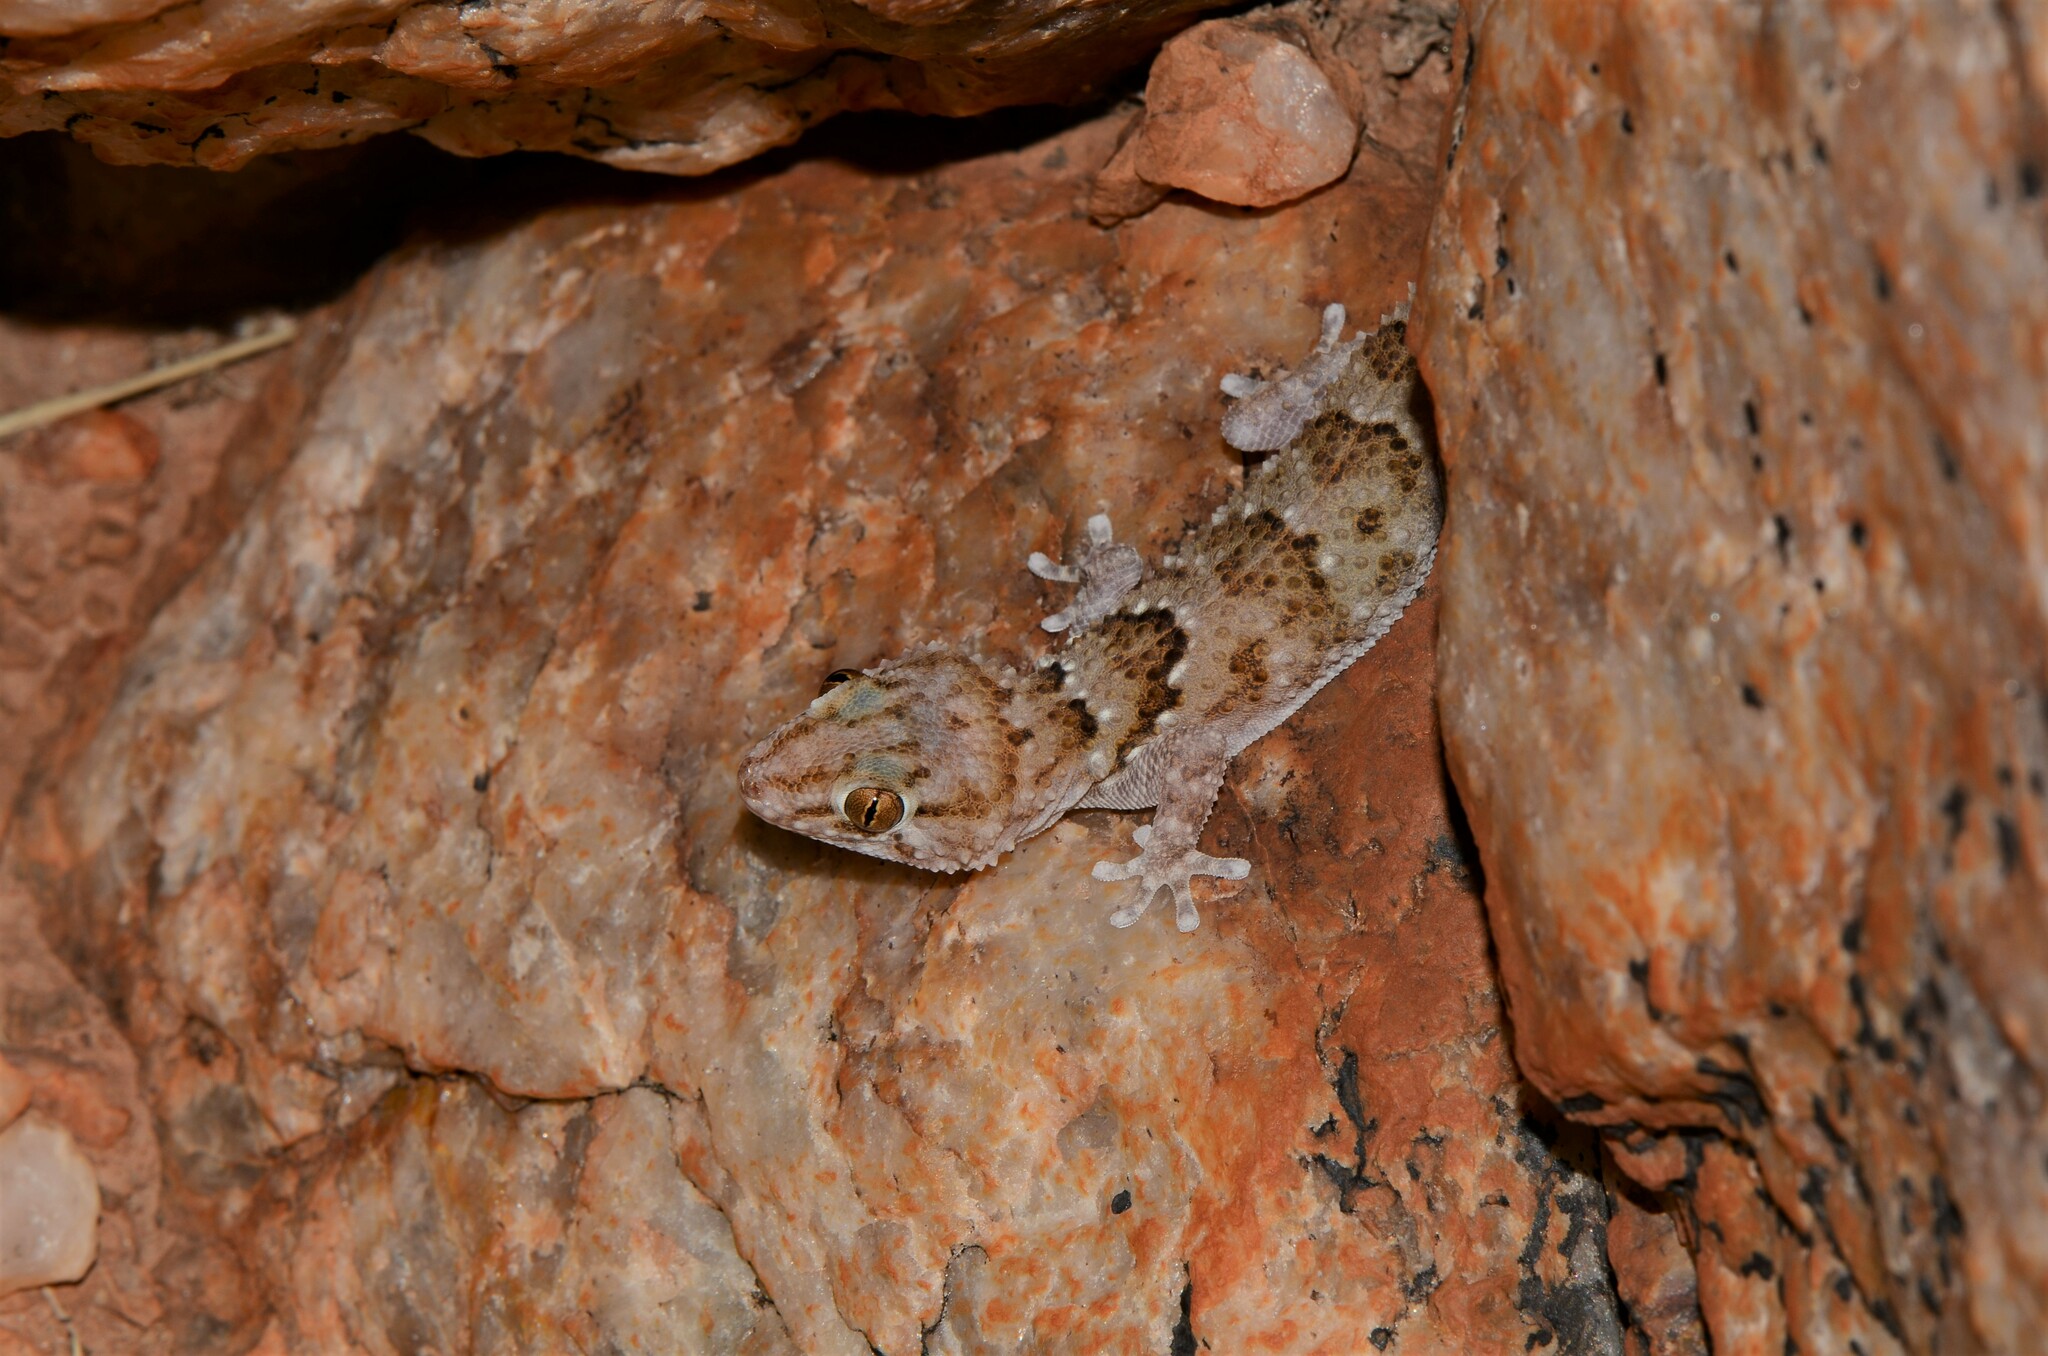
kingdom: Animalia
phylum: Chordata
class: Squamata
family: Gekkonidae
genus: Chondrodactylus
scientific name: Chondrodactylus laevigatus
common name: Fischer's thick-toed gecko
